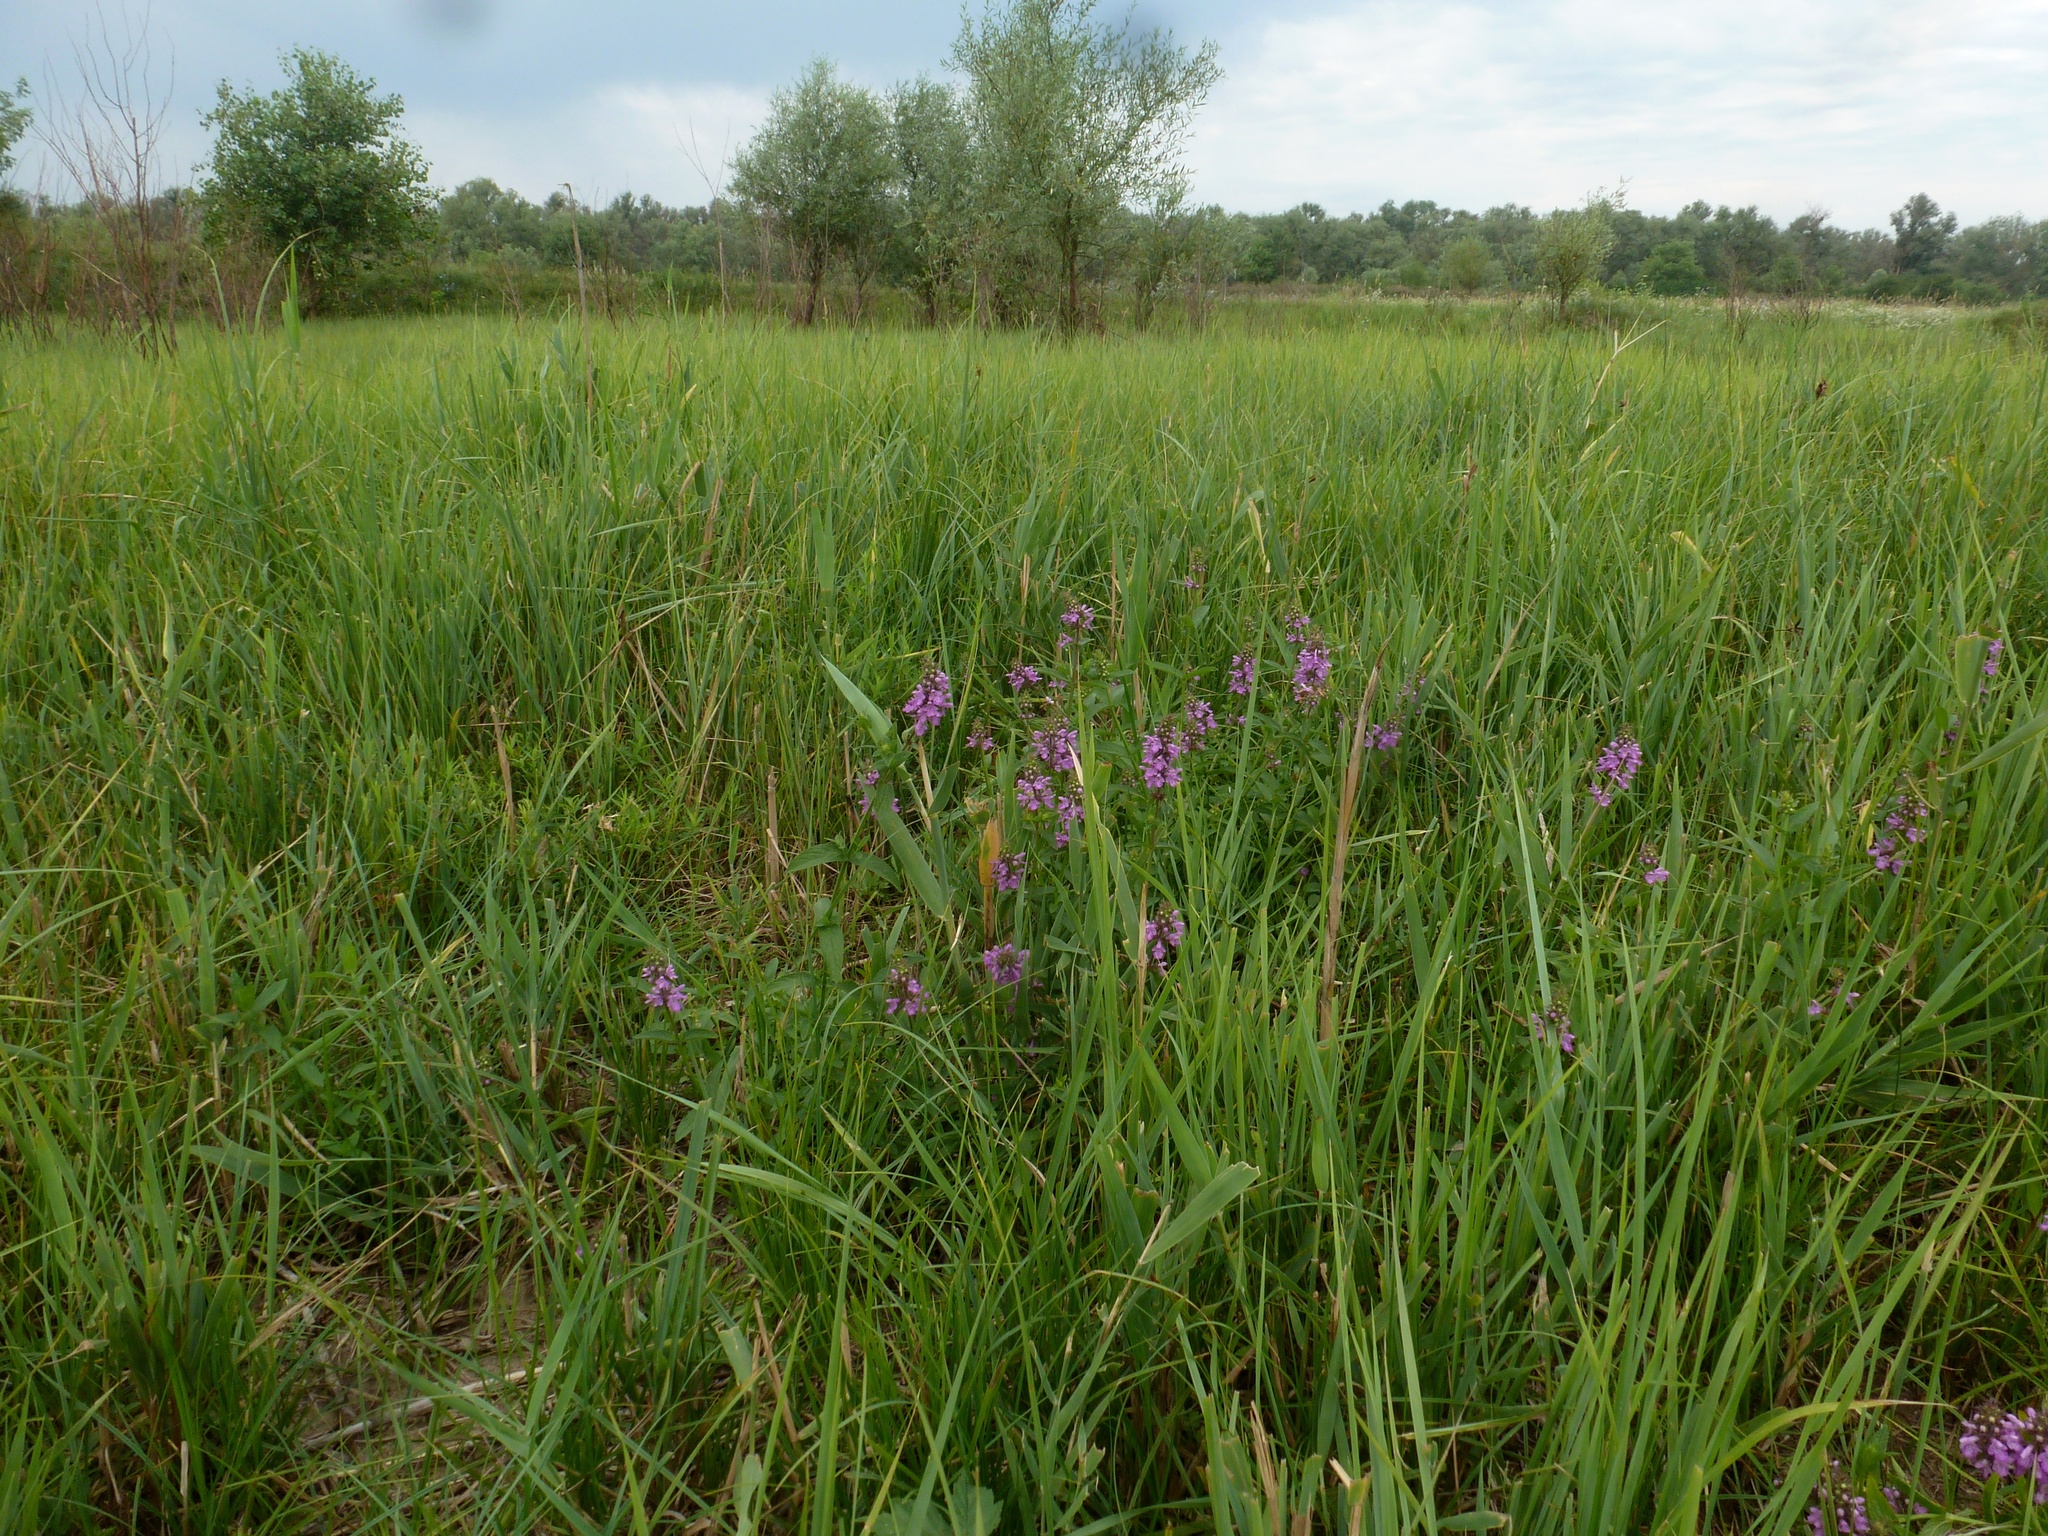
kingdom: Plantae
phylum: Tracheophyta
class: Magnoliopsida
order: Lamiales
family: Lamiaceae
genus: Stachys
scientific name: Stachys palustris
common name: Marsh woundwort
